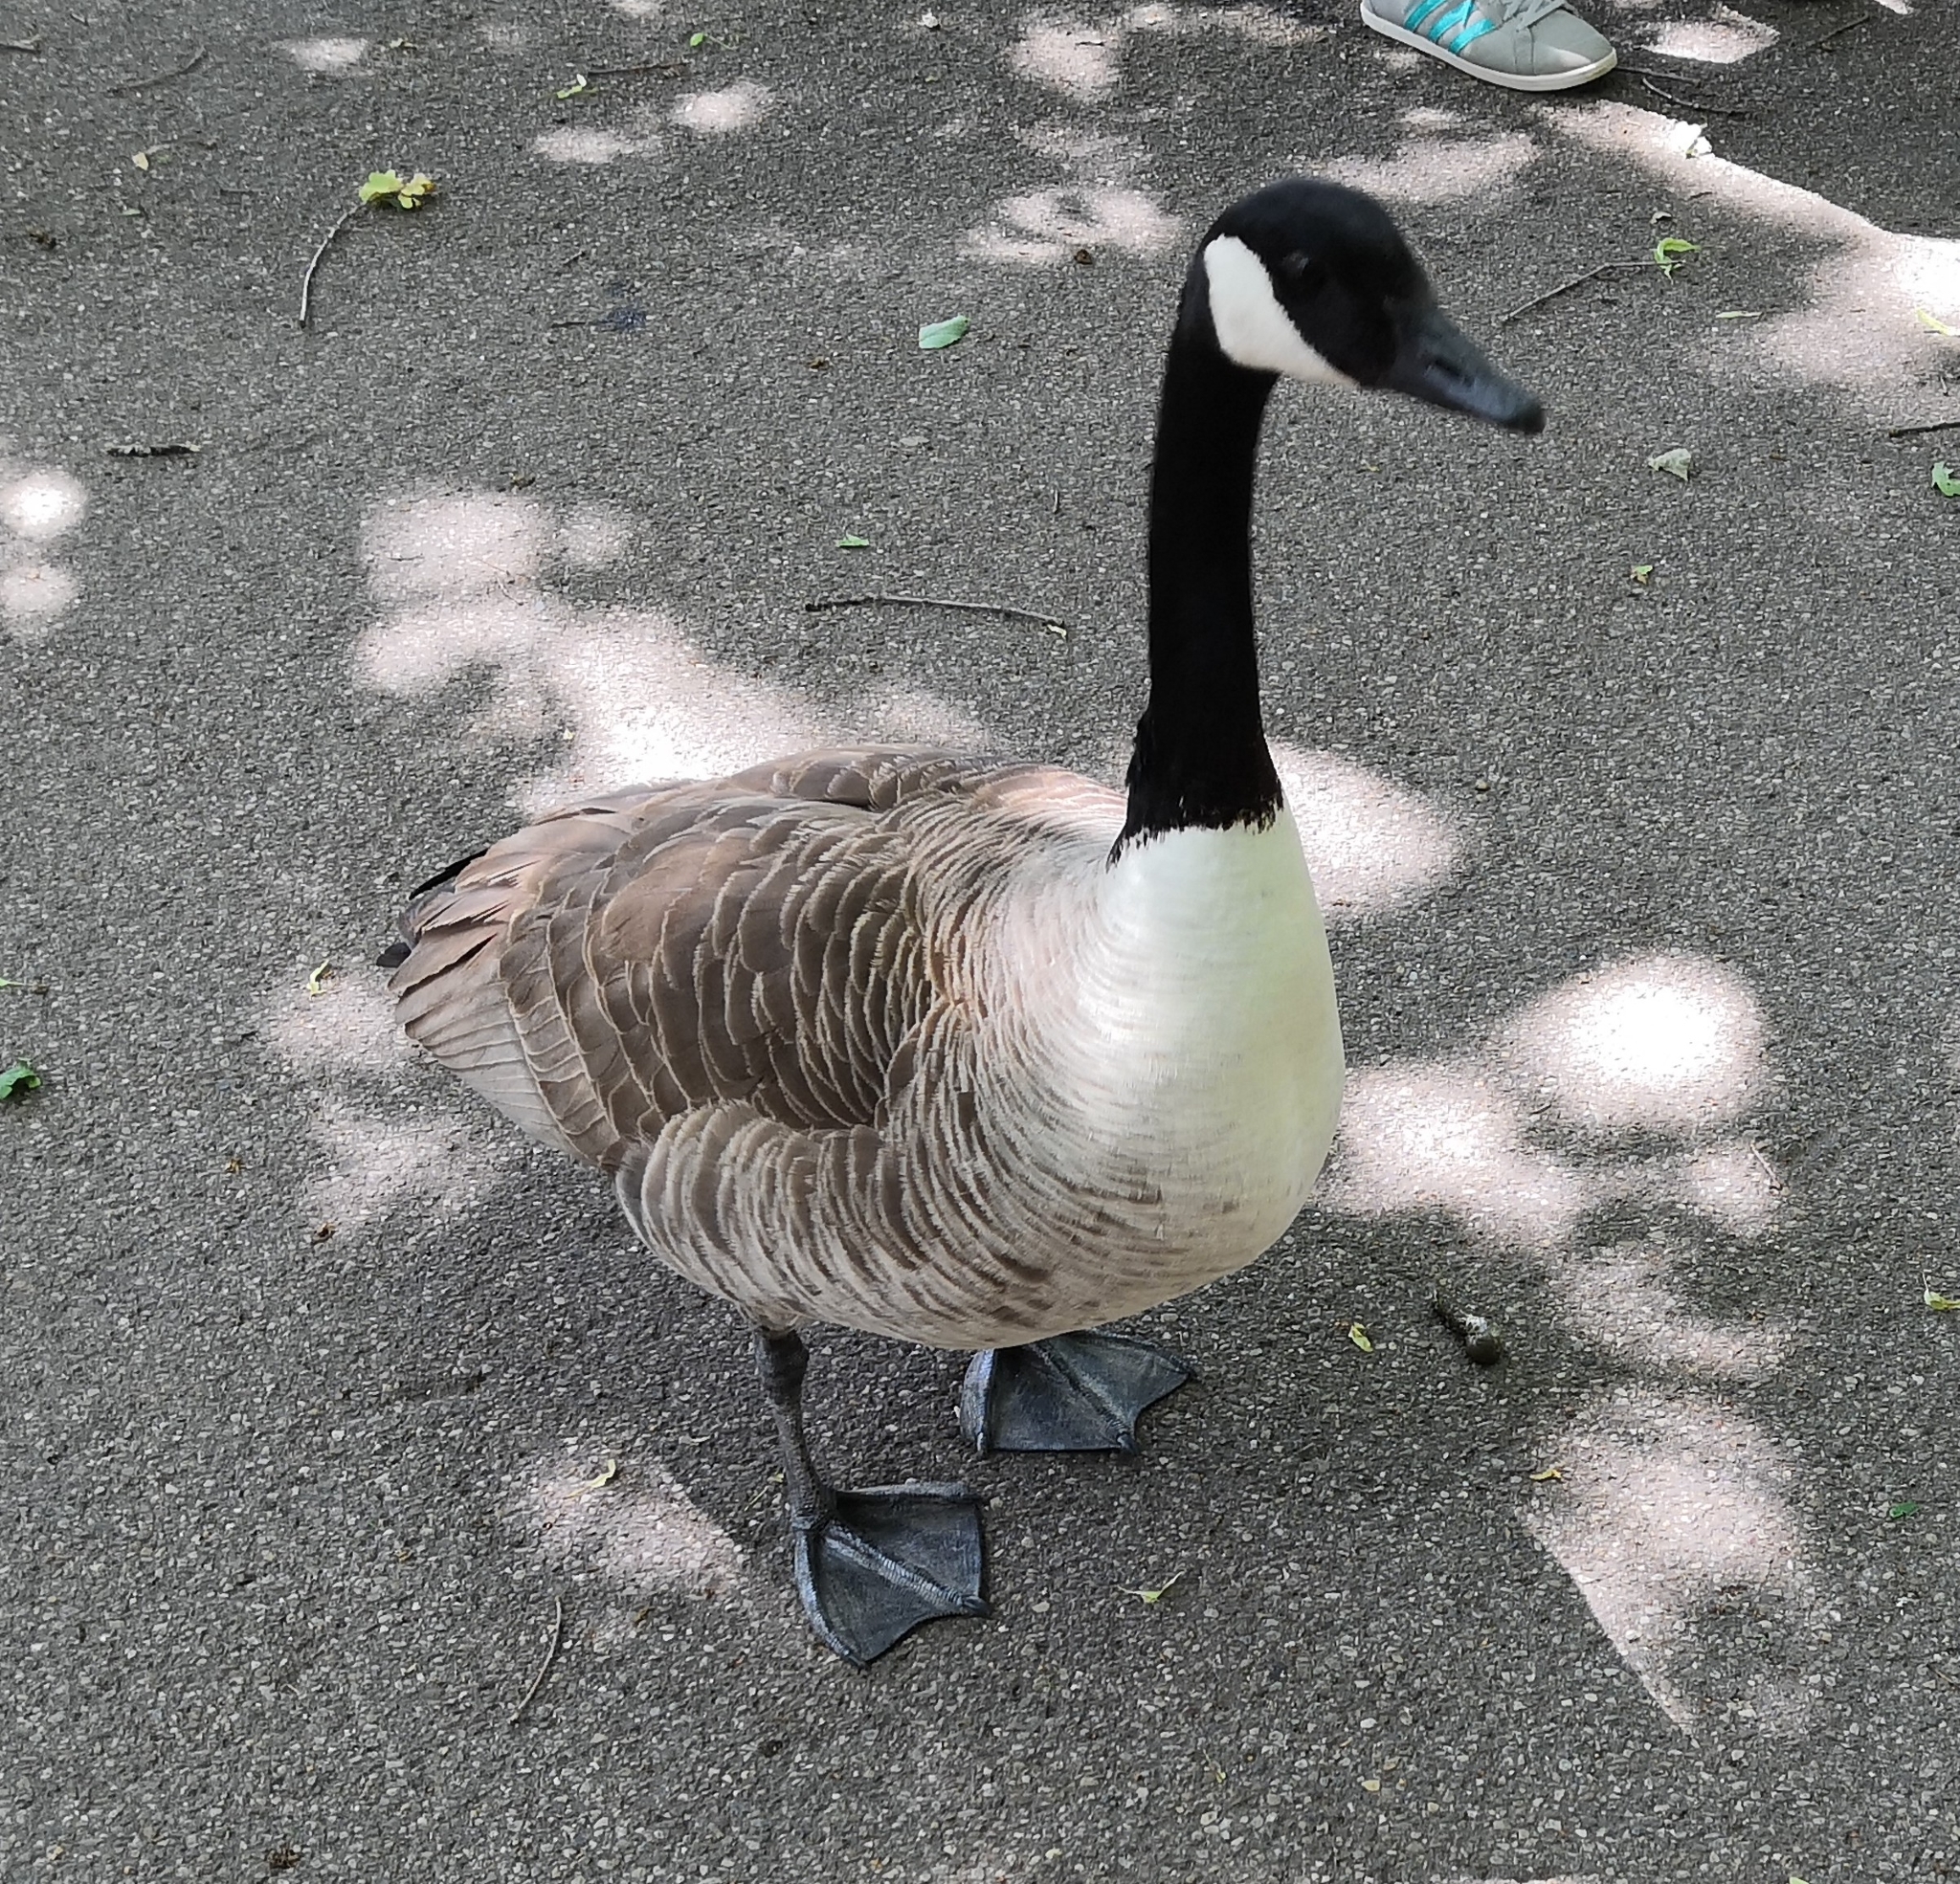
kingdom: Animalia
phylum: Chordata
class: Aves
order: Anseriformes
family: Anatidae
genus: Branta
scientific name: Branta canadensis
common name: Canada goose
